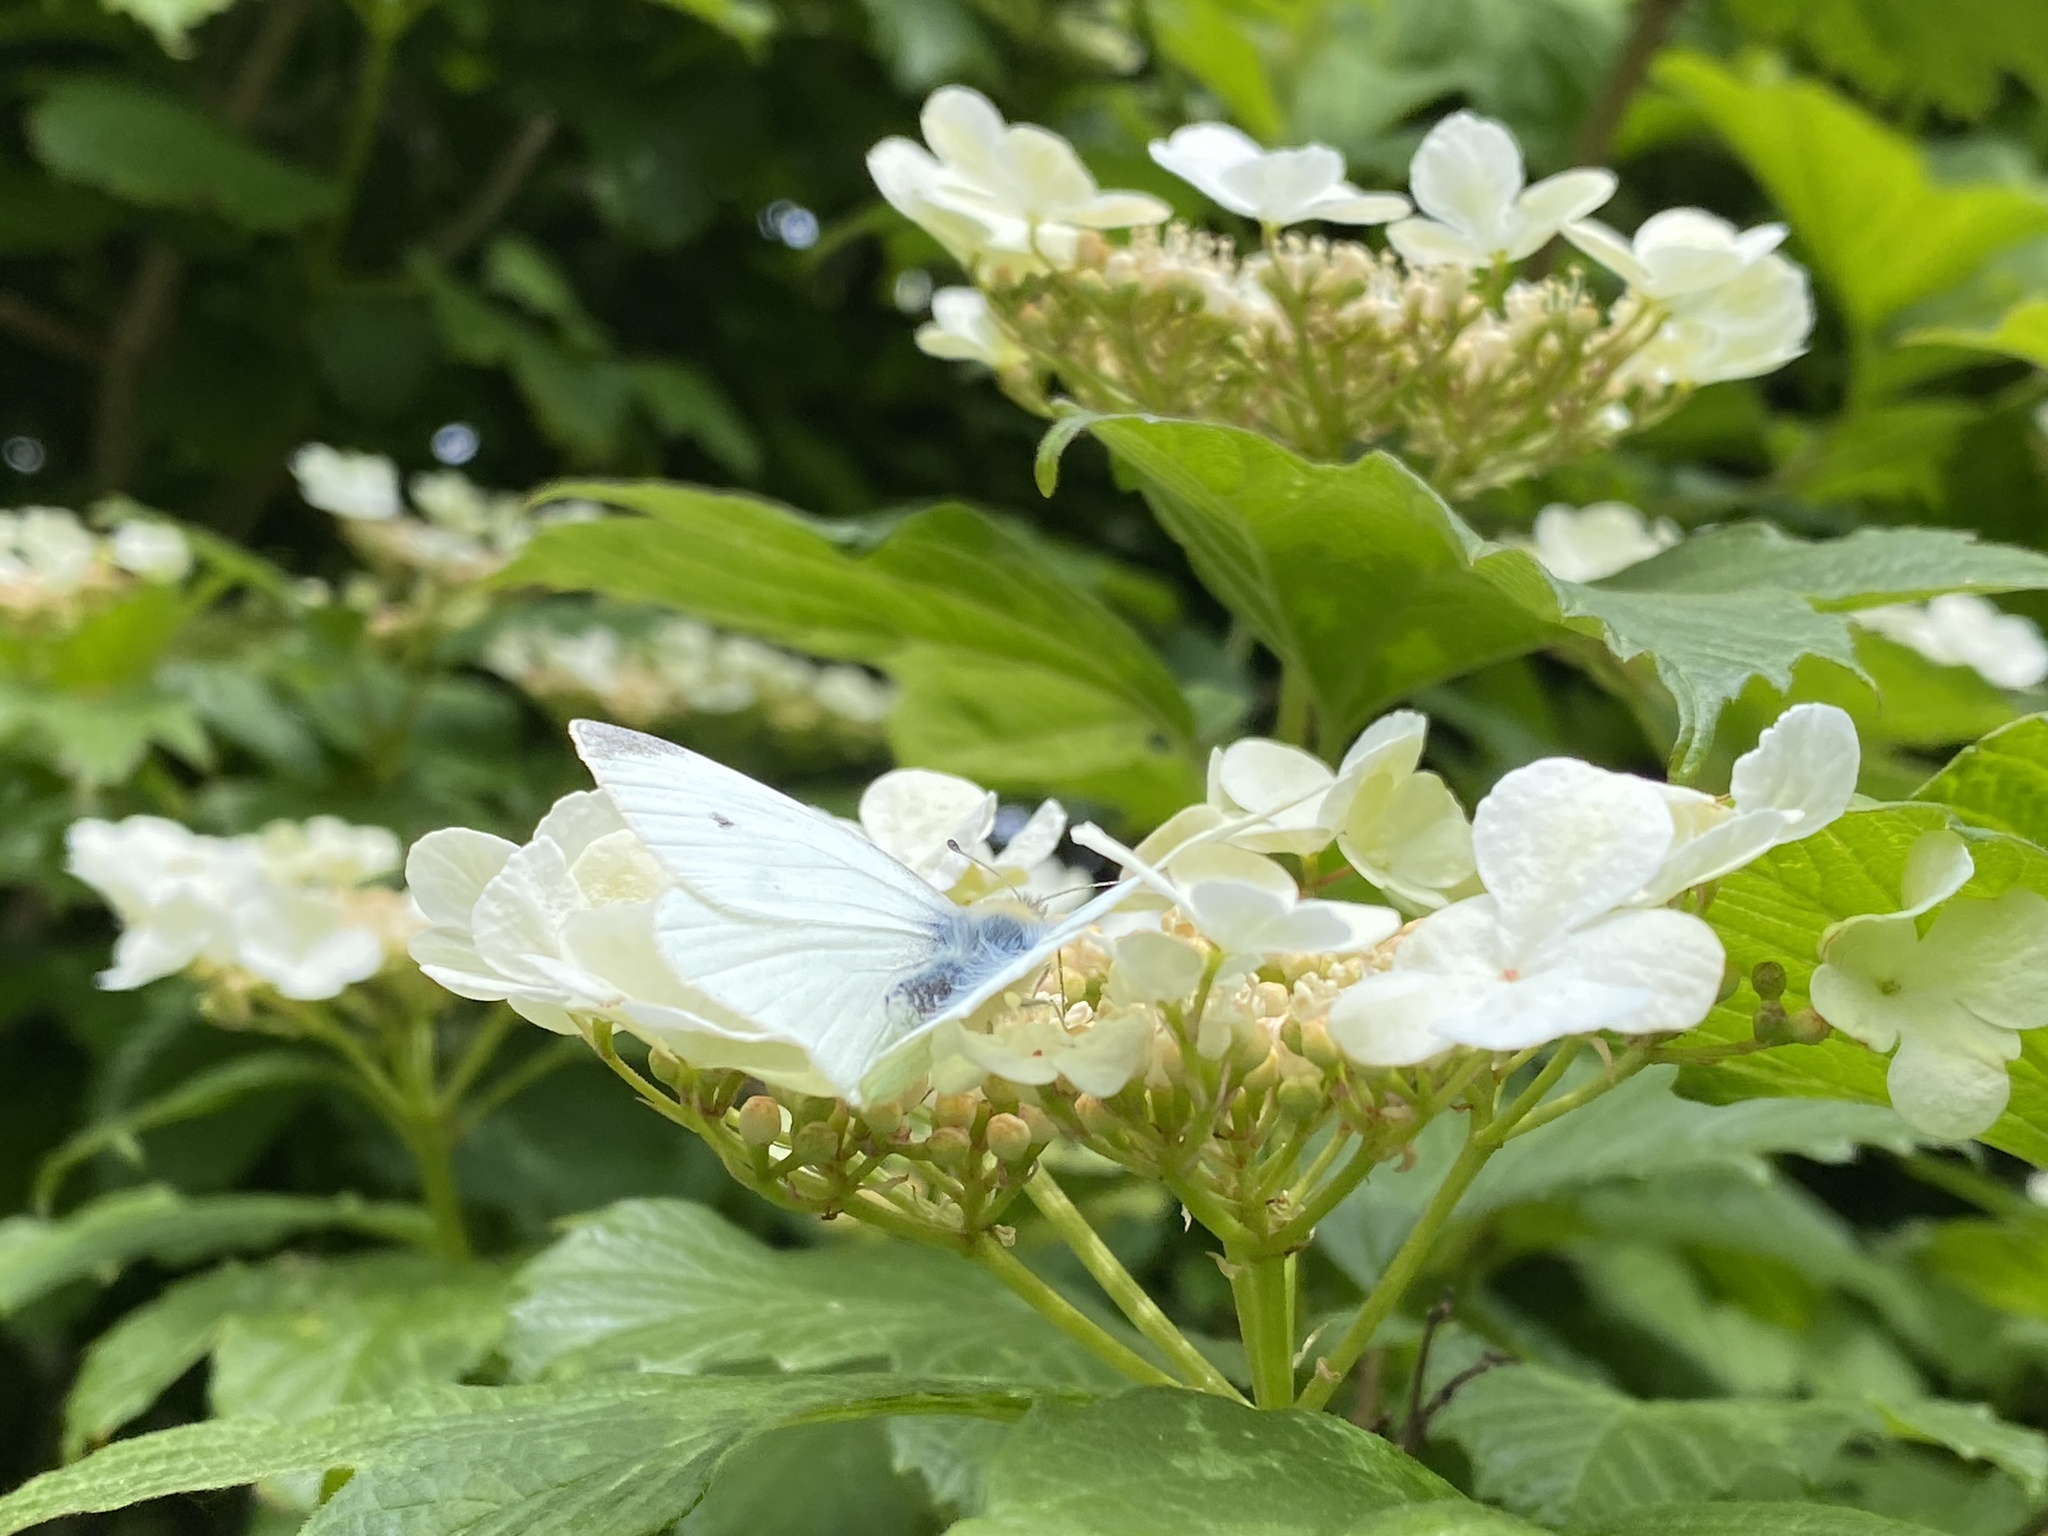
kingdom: Animalia
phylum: Arthropoda
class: Insecta
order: Lepidoptera
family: Pieridae
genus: Pieris
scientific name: Pieris rapae
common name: Small white
